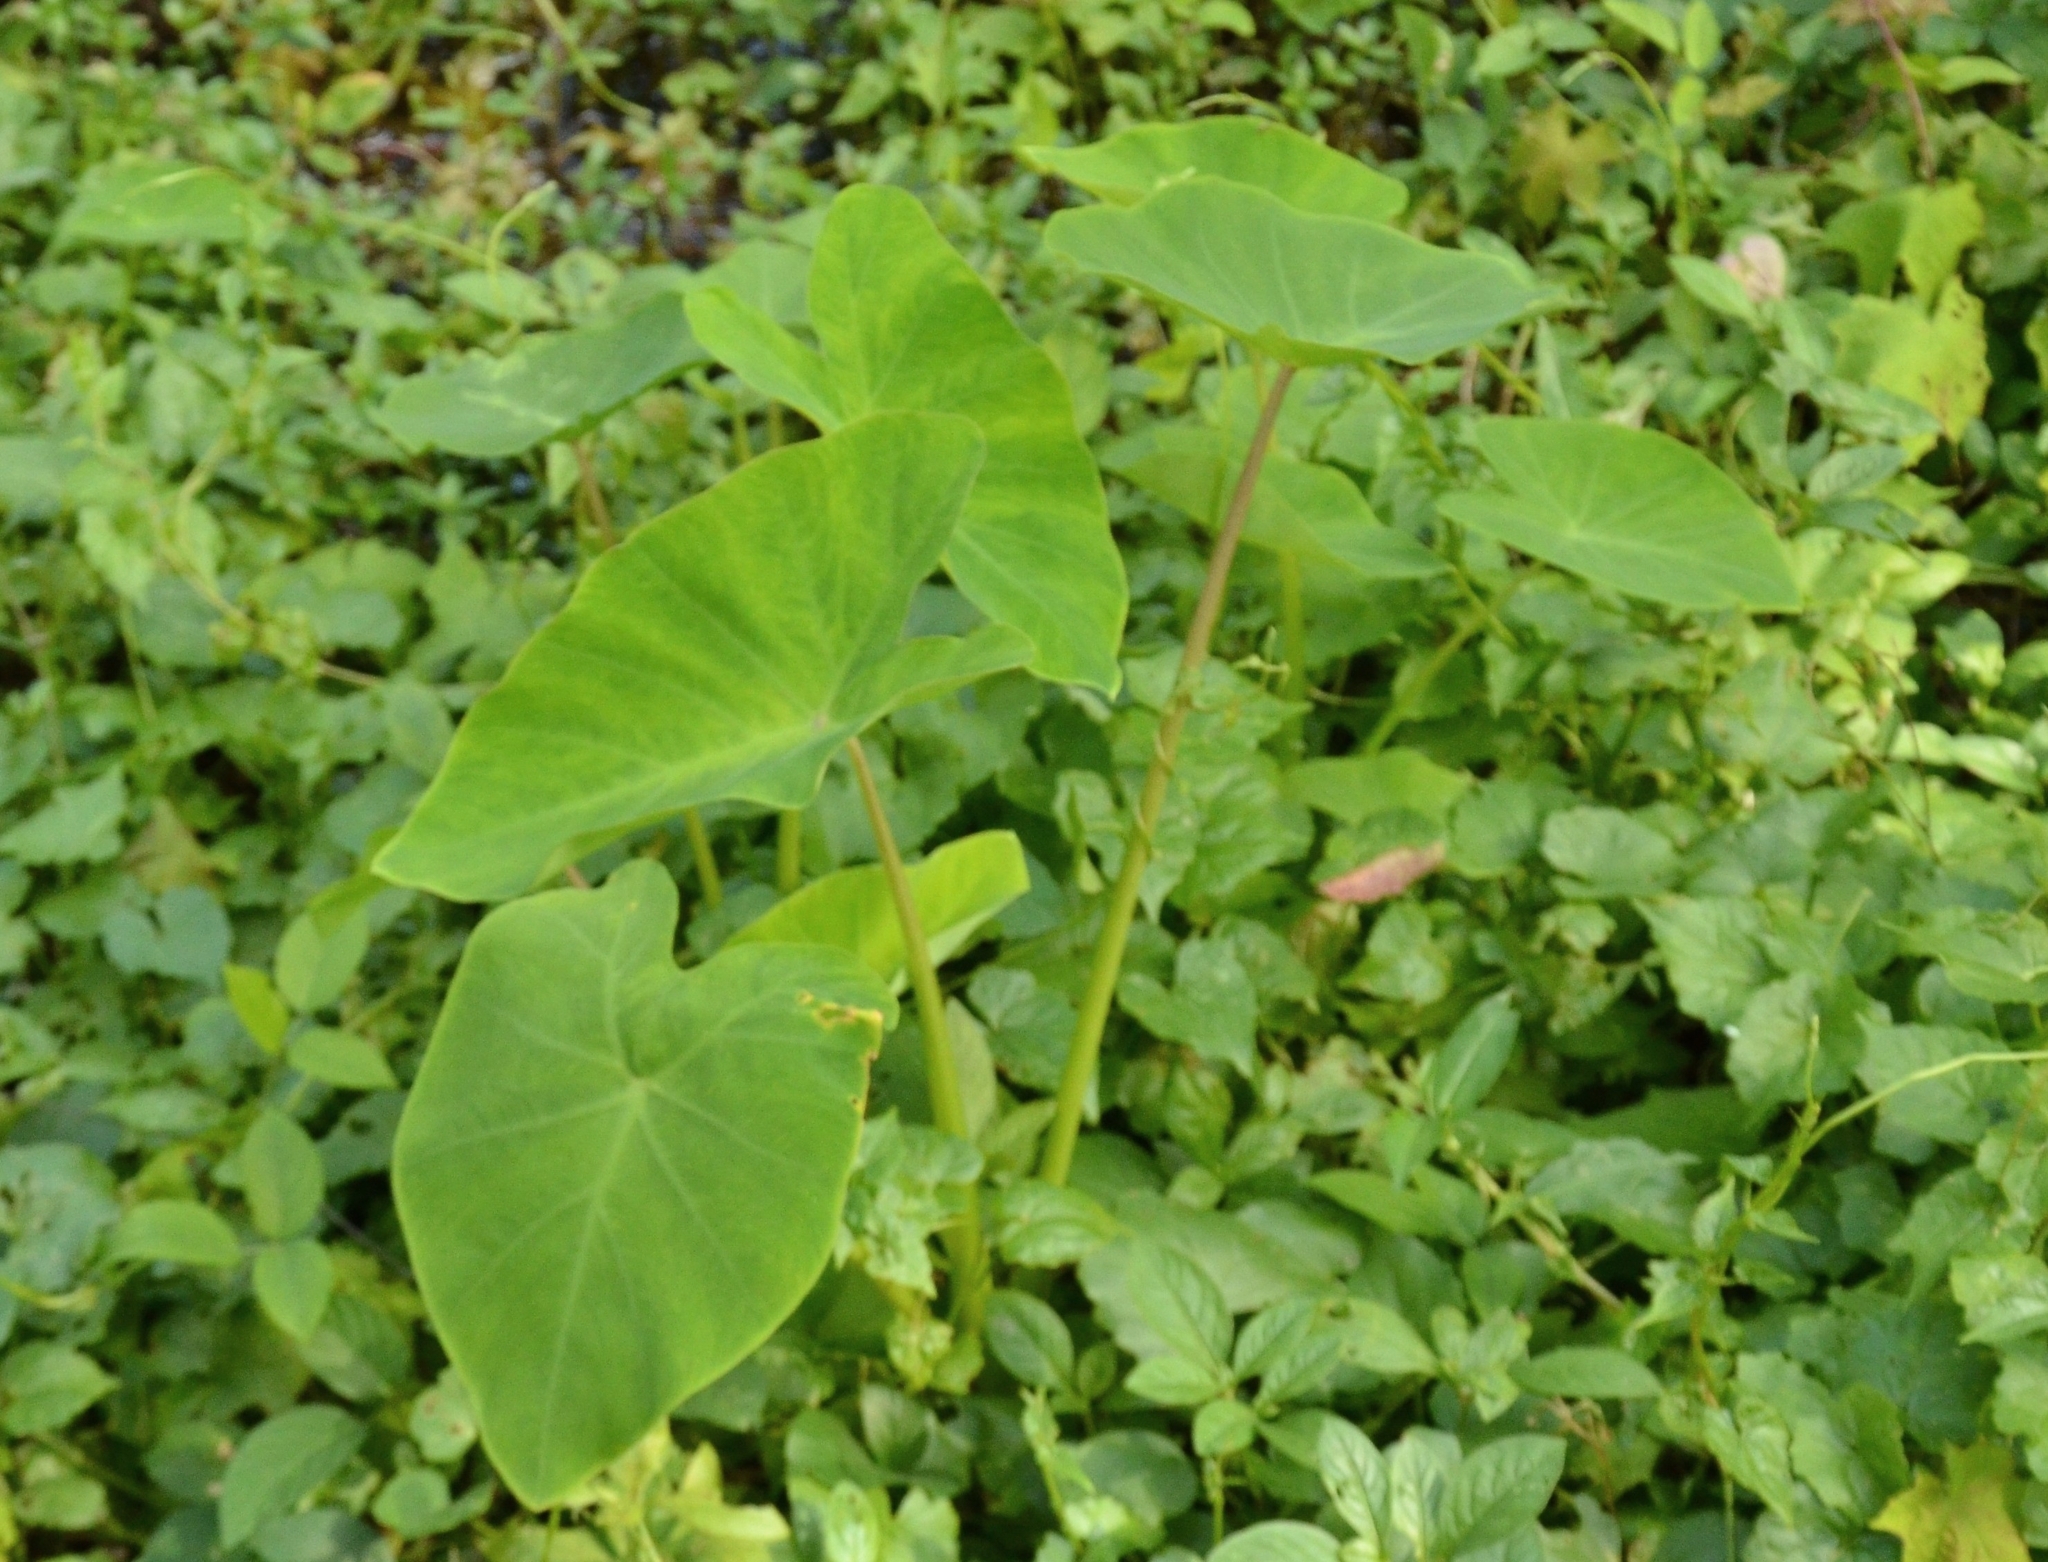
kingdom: Plantae
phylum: Tracheophyta
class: Liliopsida
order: Alismatales
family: Araceae
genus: Colocasia
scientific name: Colocasia esculenta
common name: Taro
